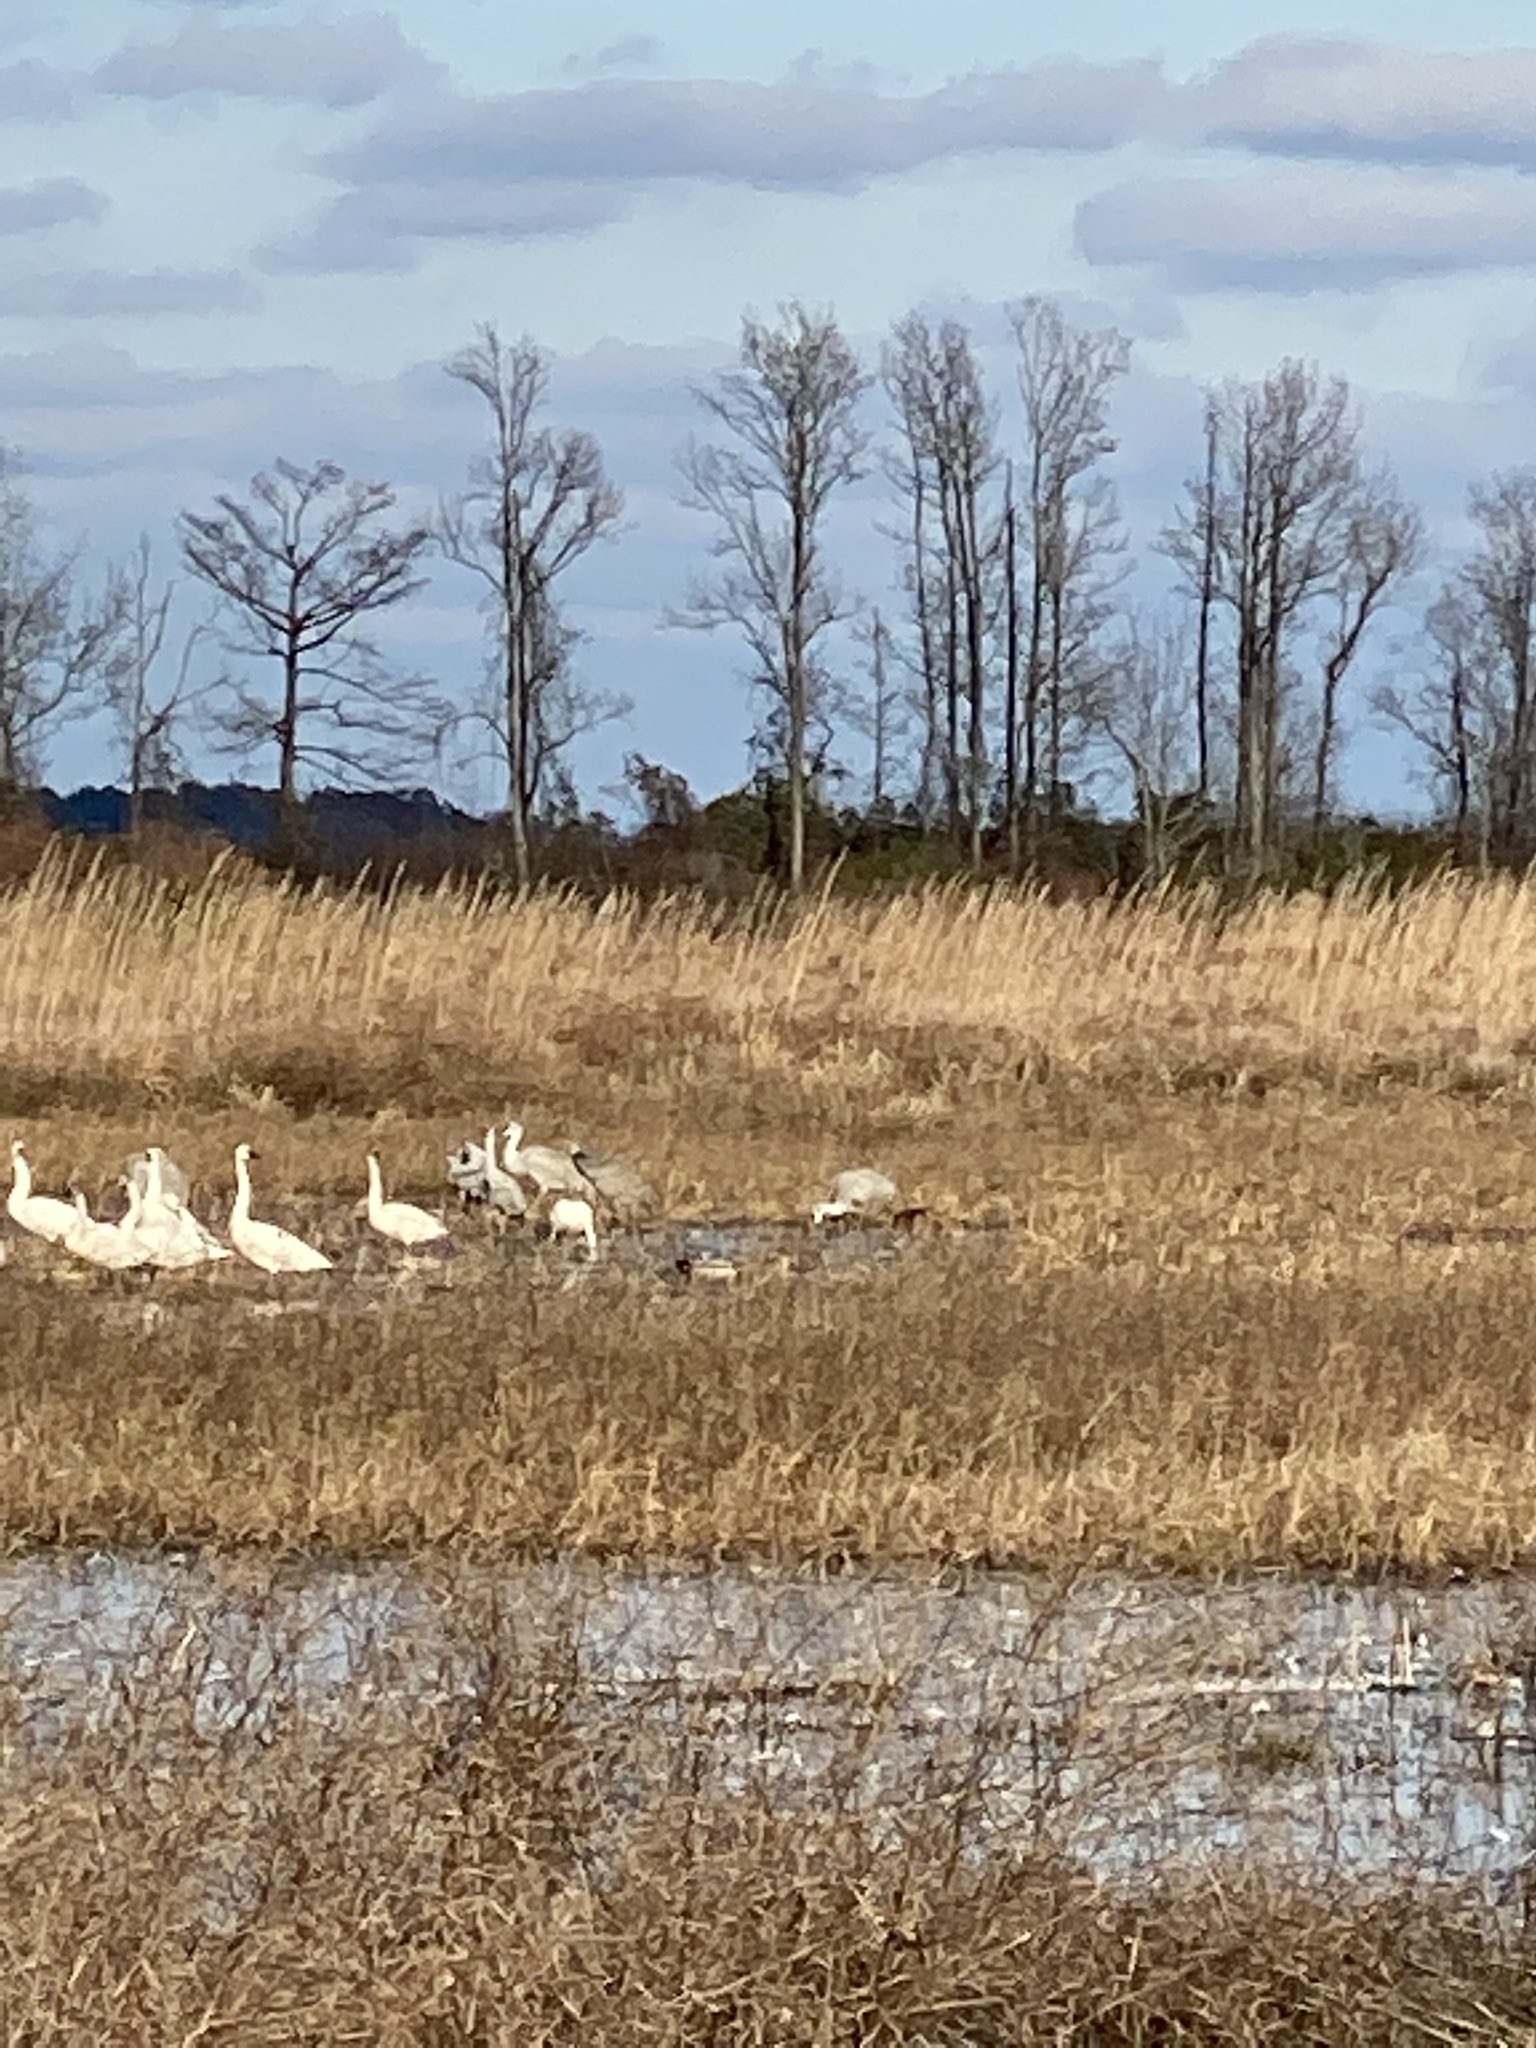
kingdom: Animalia
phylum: Chordata
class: Aves
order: Gruiformes
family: Gruidae
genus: Grus
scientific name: Grus canadensis
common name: Sandhill crane
